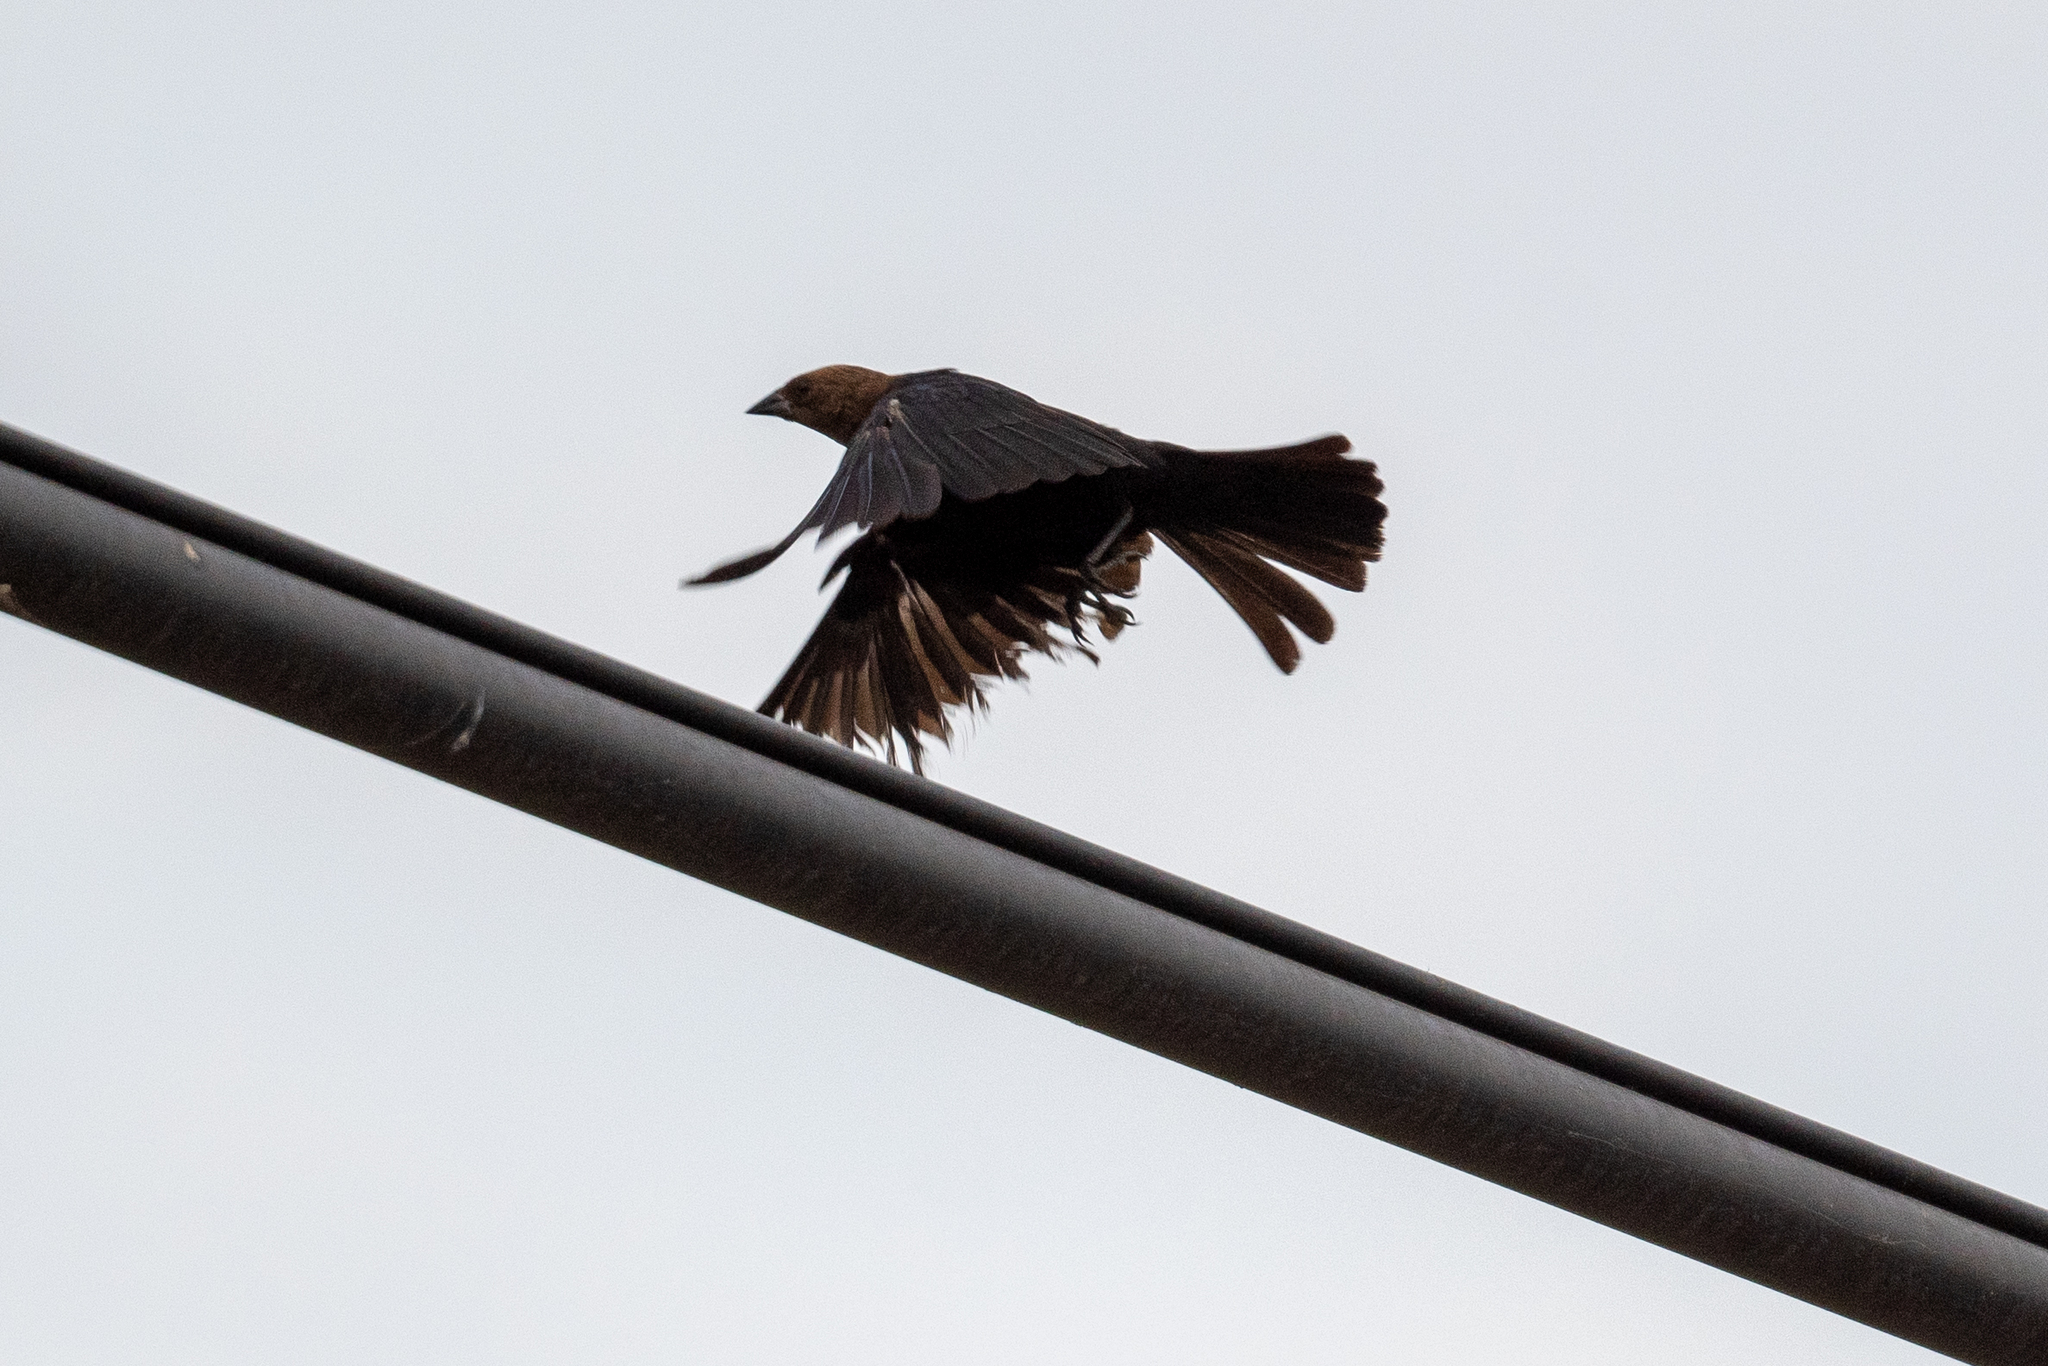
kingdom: Animalia
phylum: Chordata
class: Aves
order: Passeriformes
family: Icteridae
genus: Molothrus
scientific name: Molothrus ater
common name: Brown-headed cowbird
